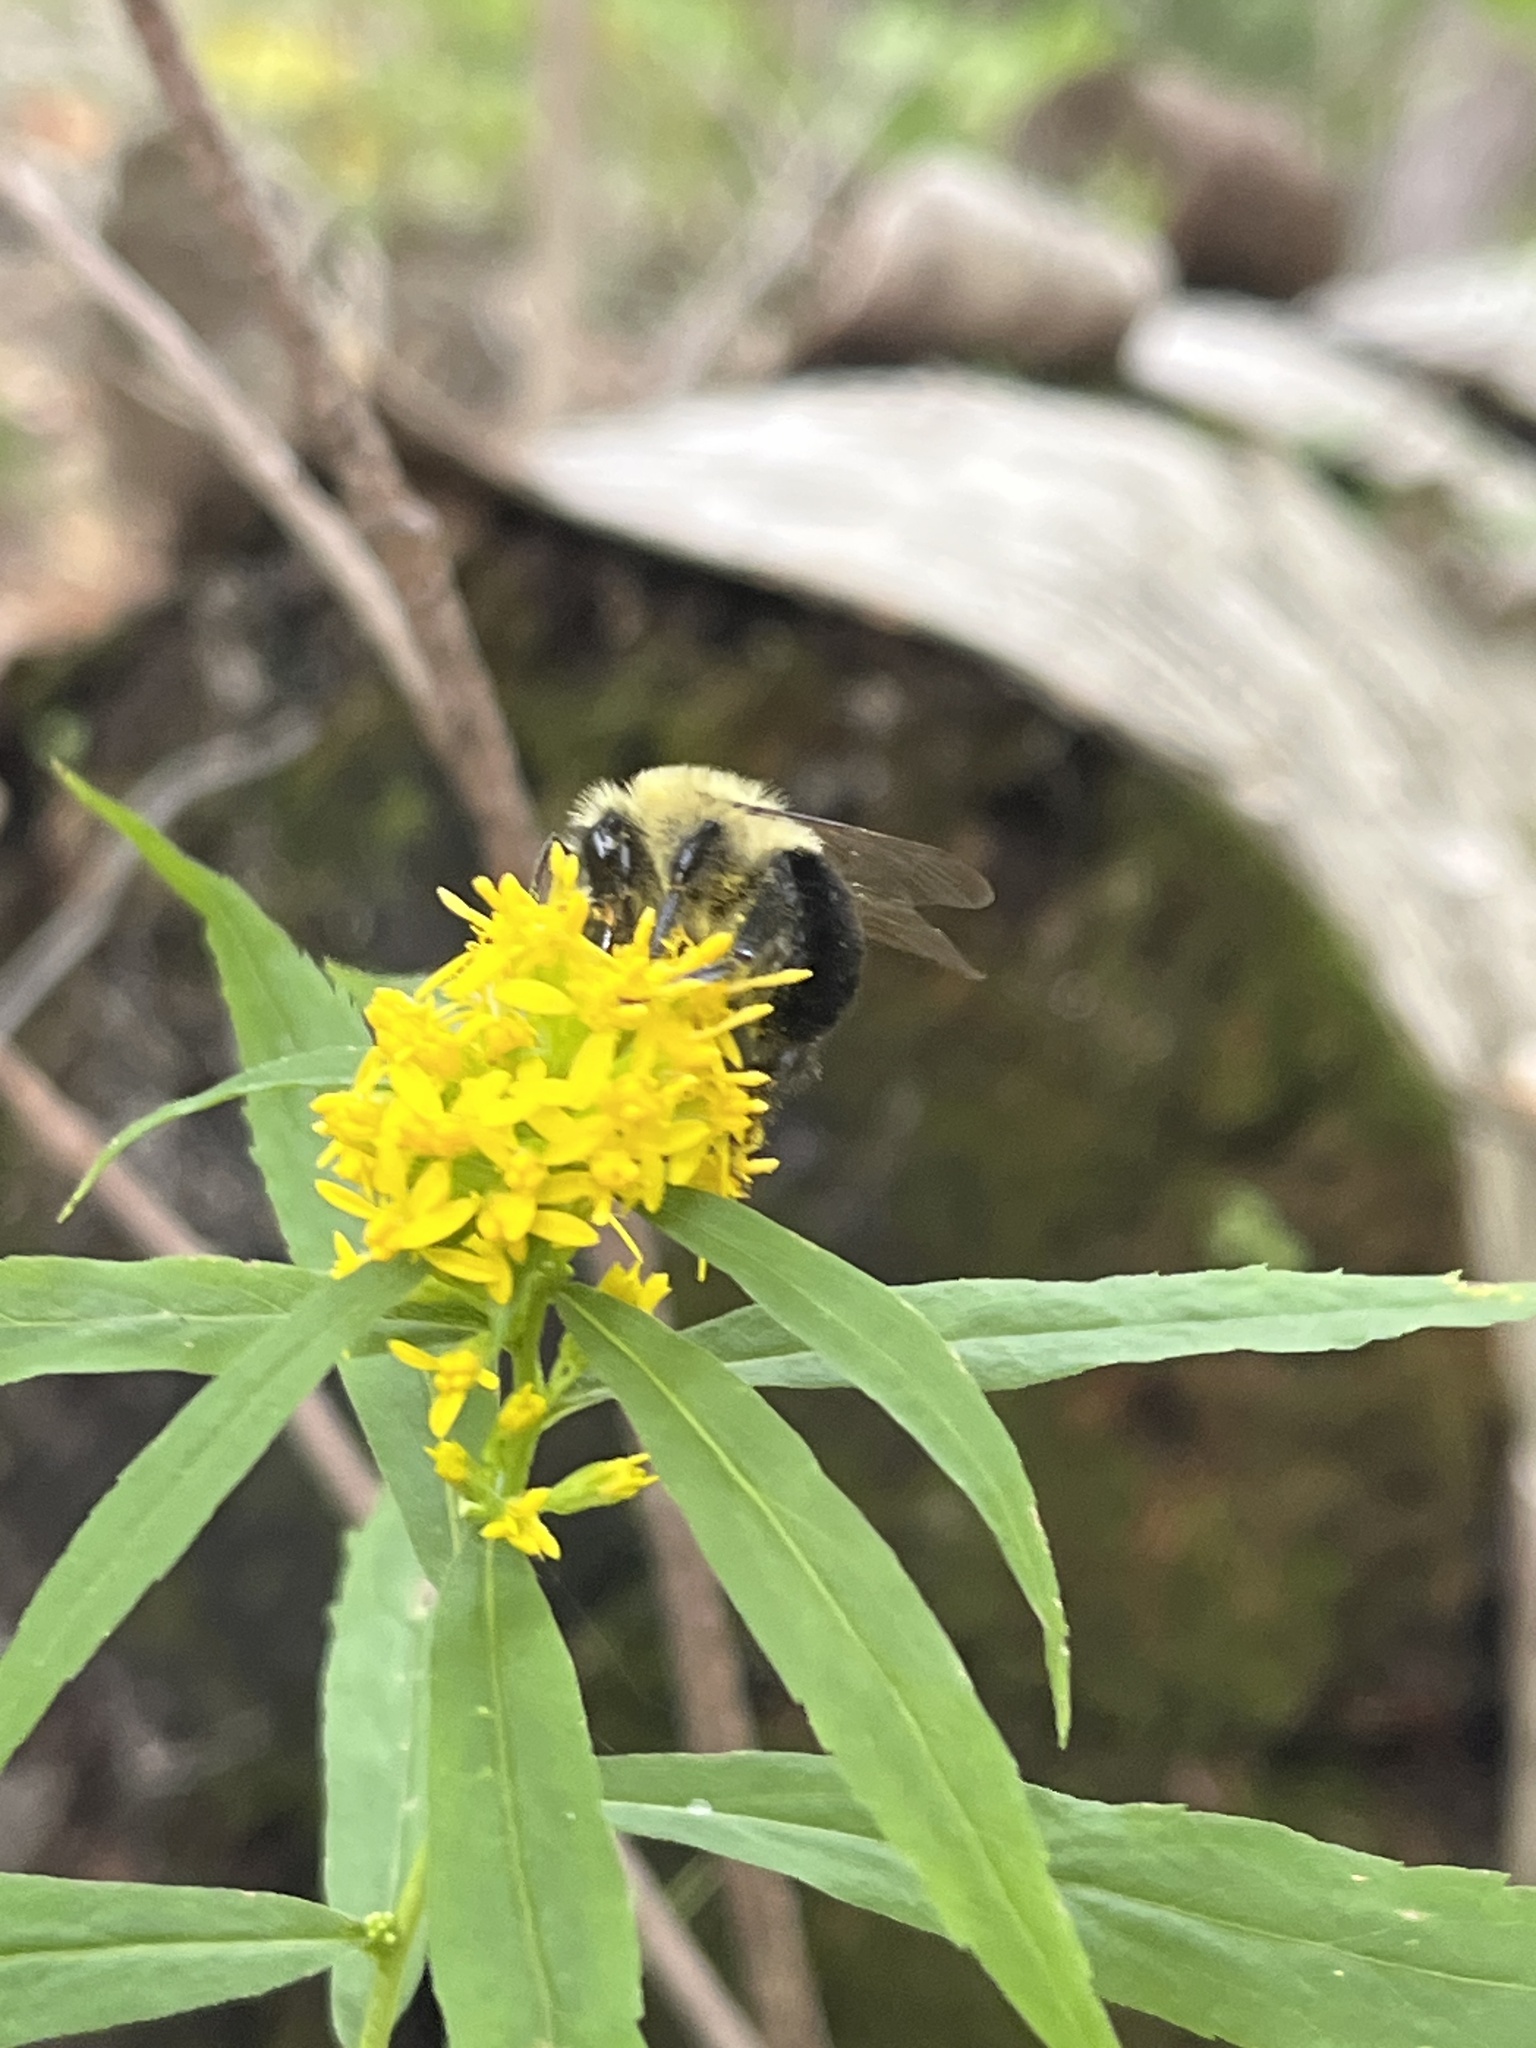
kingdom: Animalia
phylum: Arthropoda
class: Insecta
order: Hymenoptera
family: Apidae
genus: Bombus
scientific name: Bombus impatiens
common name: Common eastern bumble bee
